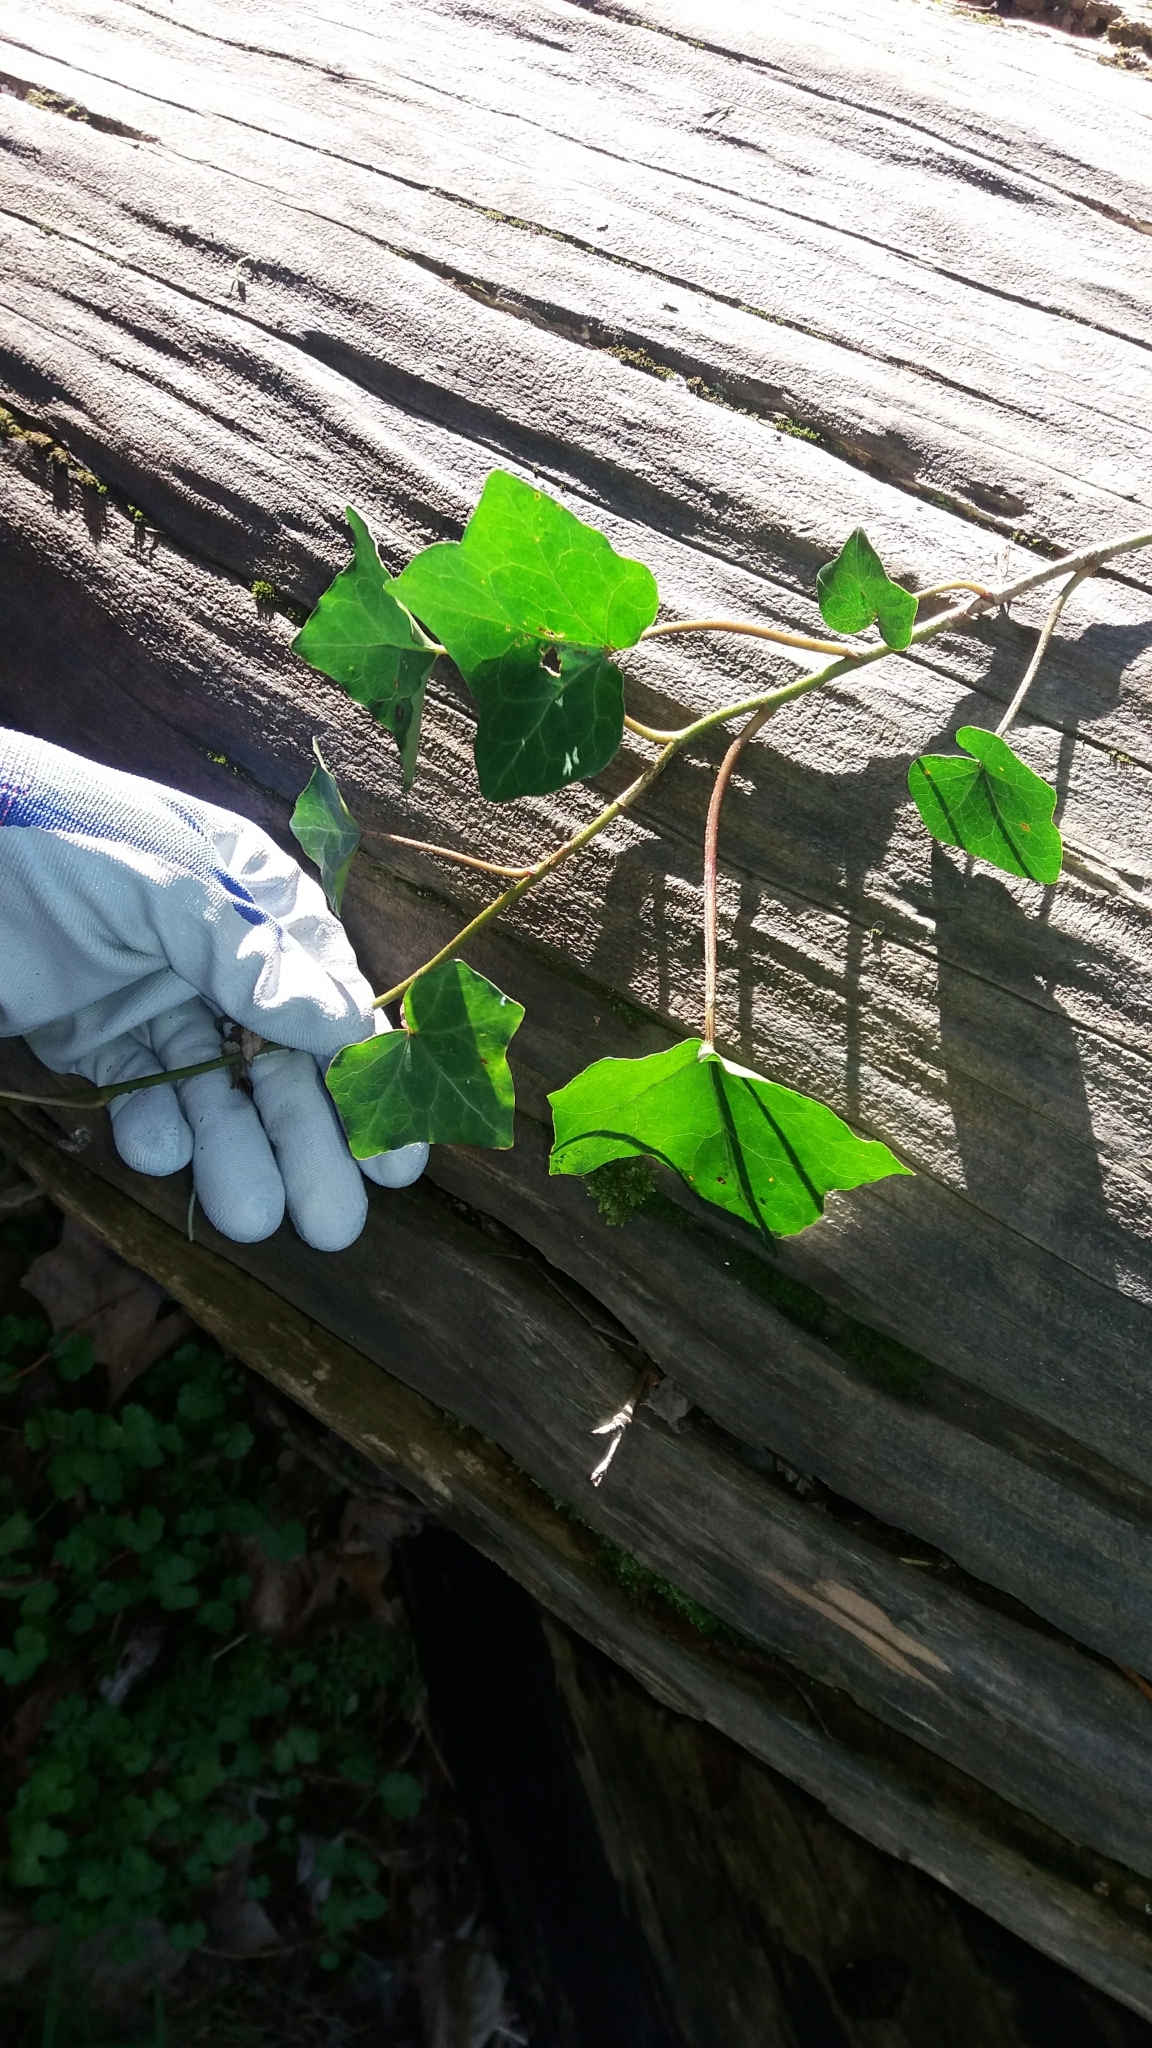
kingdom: Plantae
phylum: Tracheophyta
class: Magnoliopsida
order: Apiales
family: Araliaceae
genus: Hedera
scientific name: Hedera helix
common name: Ivy
